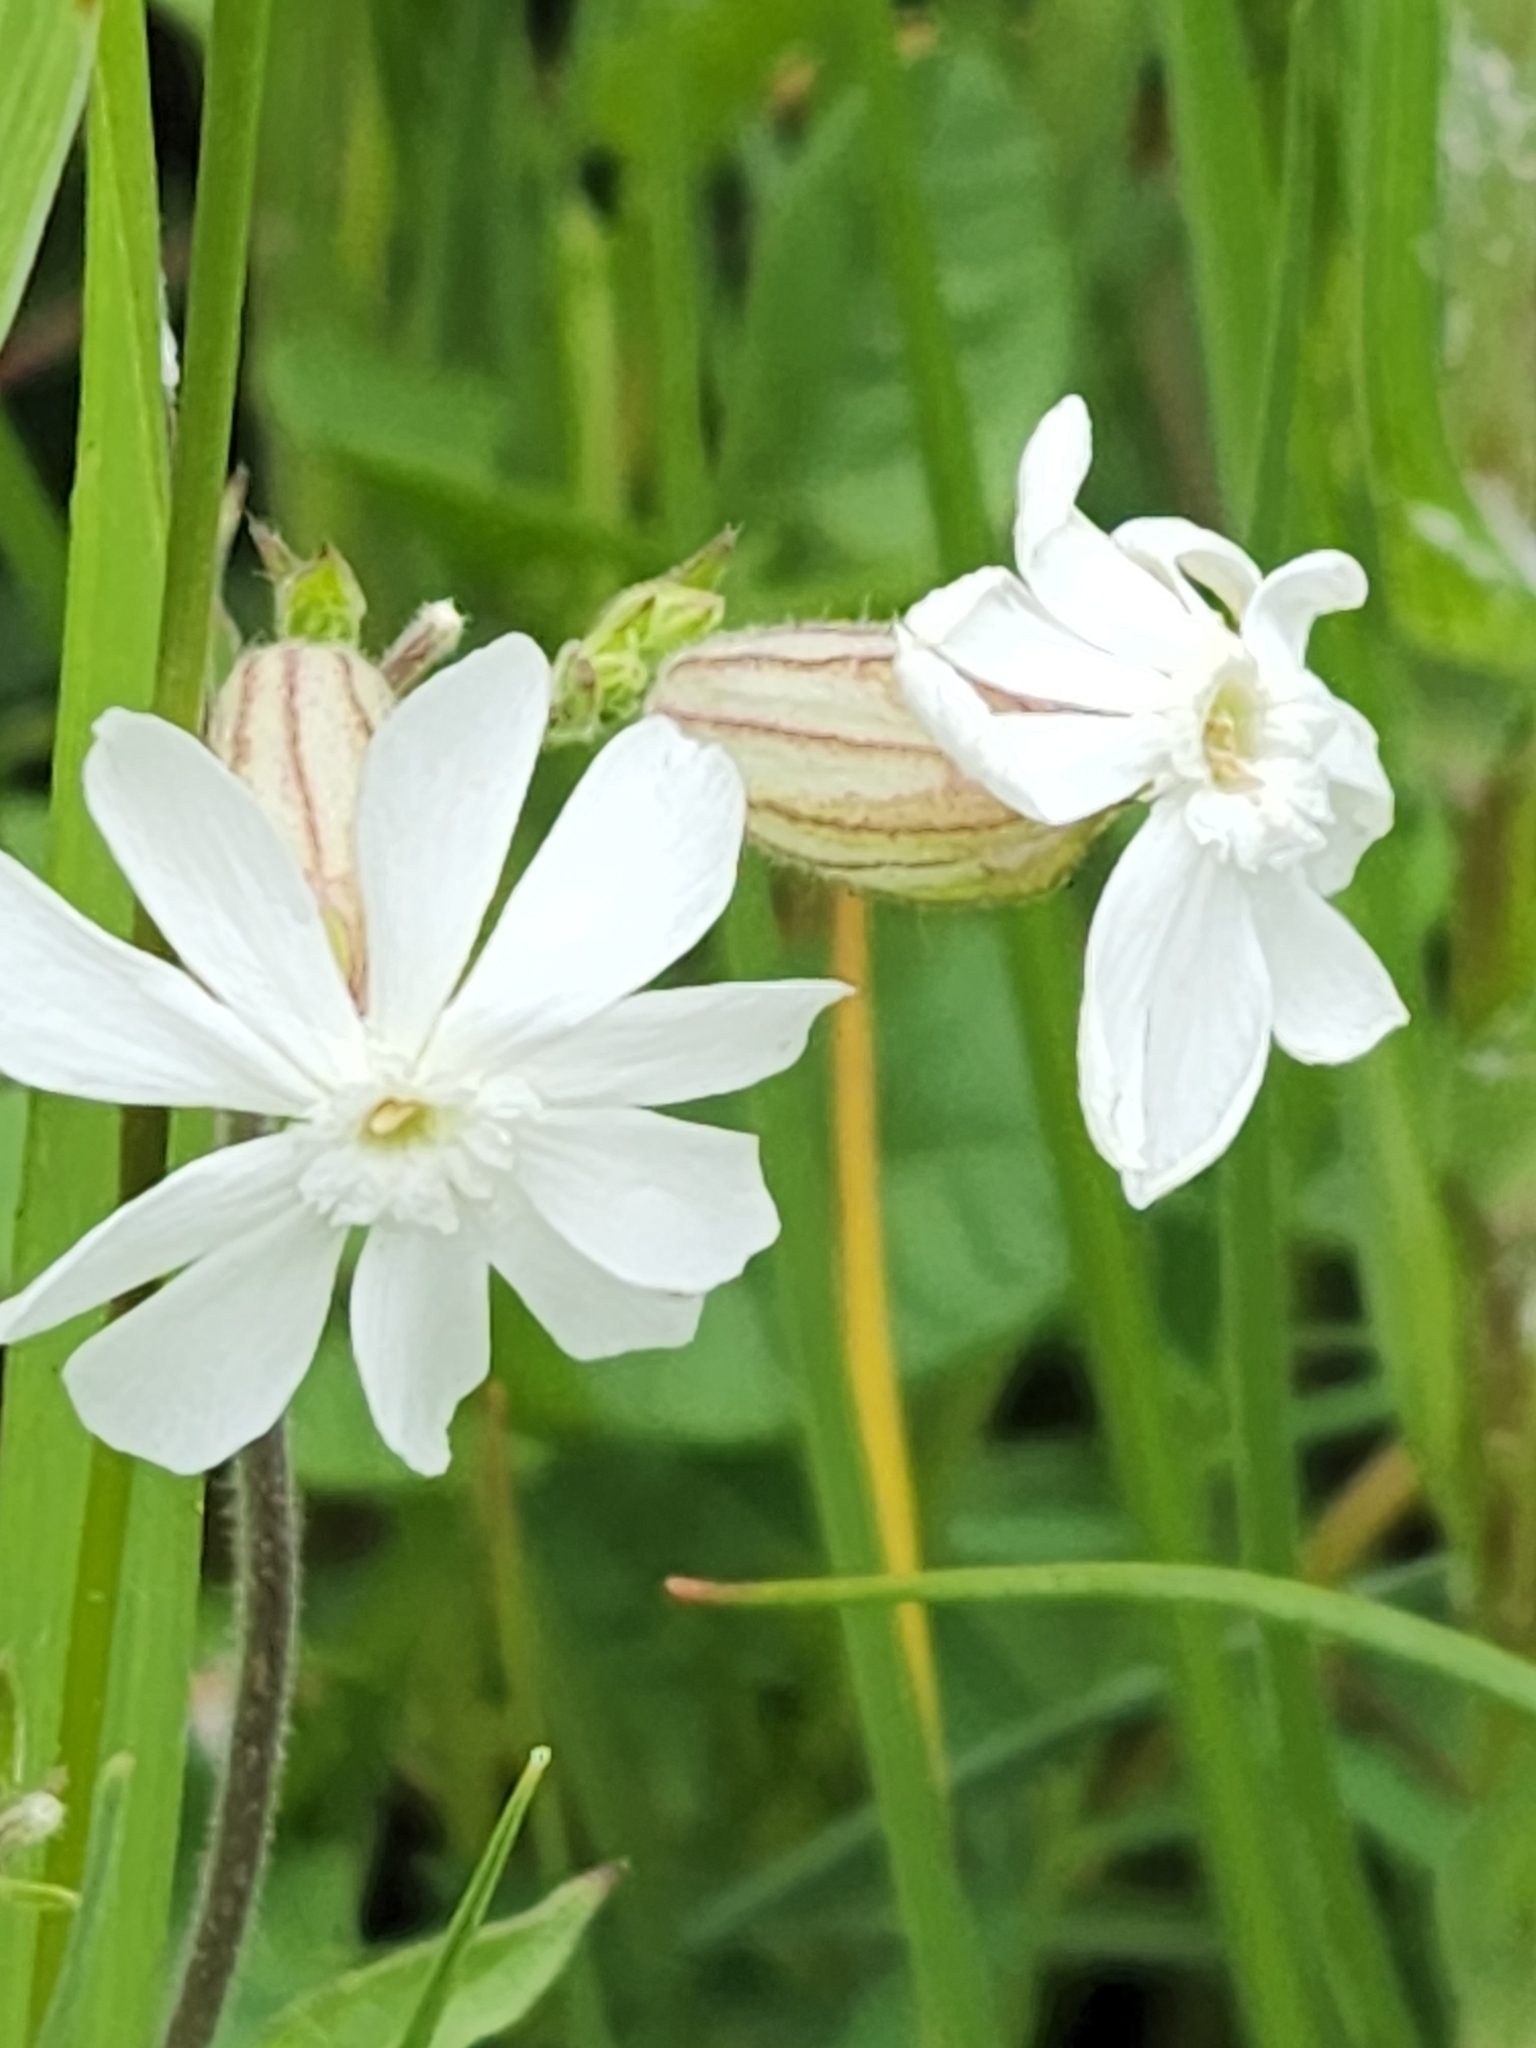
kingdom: Plantae
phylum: Tracheophyta
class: Magnoliopsida
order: Caryophyllales
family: Caryophyllaceae
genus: Silene
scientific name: Silene latifolia
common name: White campion
